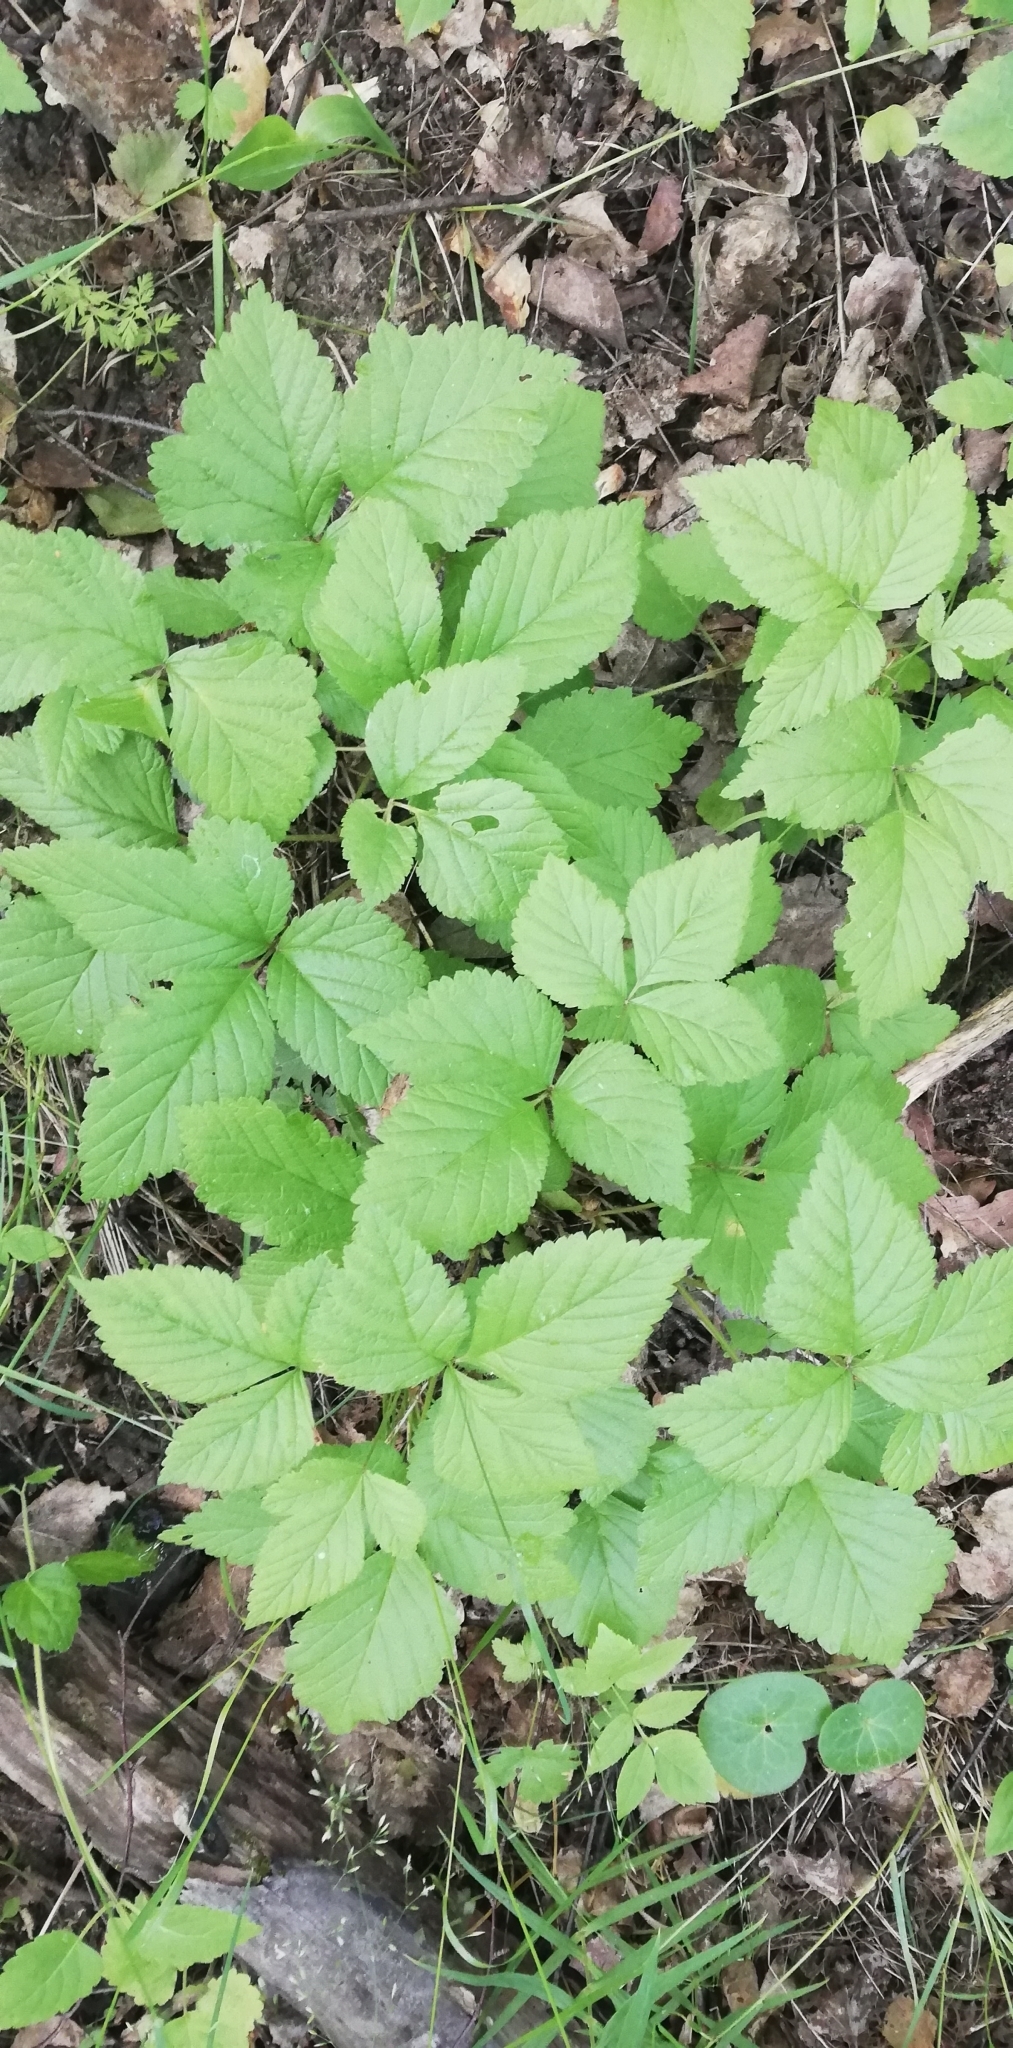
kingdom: Plantae
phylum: Tracheophyta
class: Magnoliopsida
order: Rosales
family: Rosaceae
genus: Rubus
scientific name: Rubus saxatilis
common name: Stone bramble
